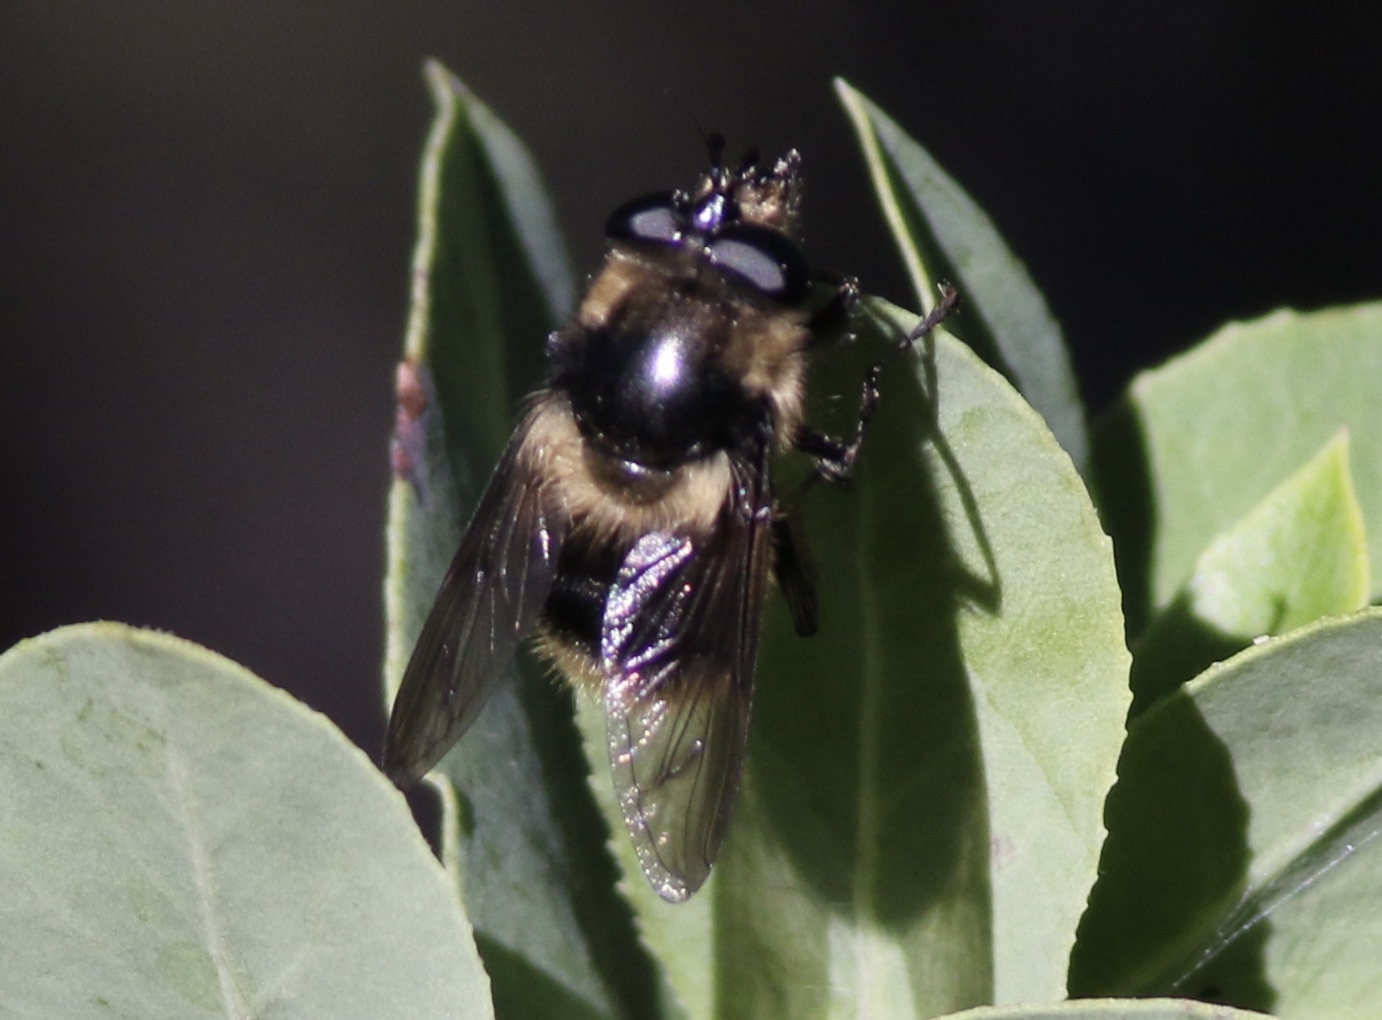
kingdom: Animalia
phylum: Arthropoda
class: Insecta
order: Diptera
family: Syrphidae
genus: Criorhina
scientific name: Criorhina nigripes
